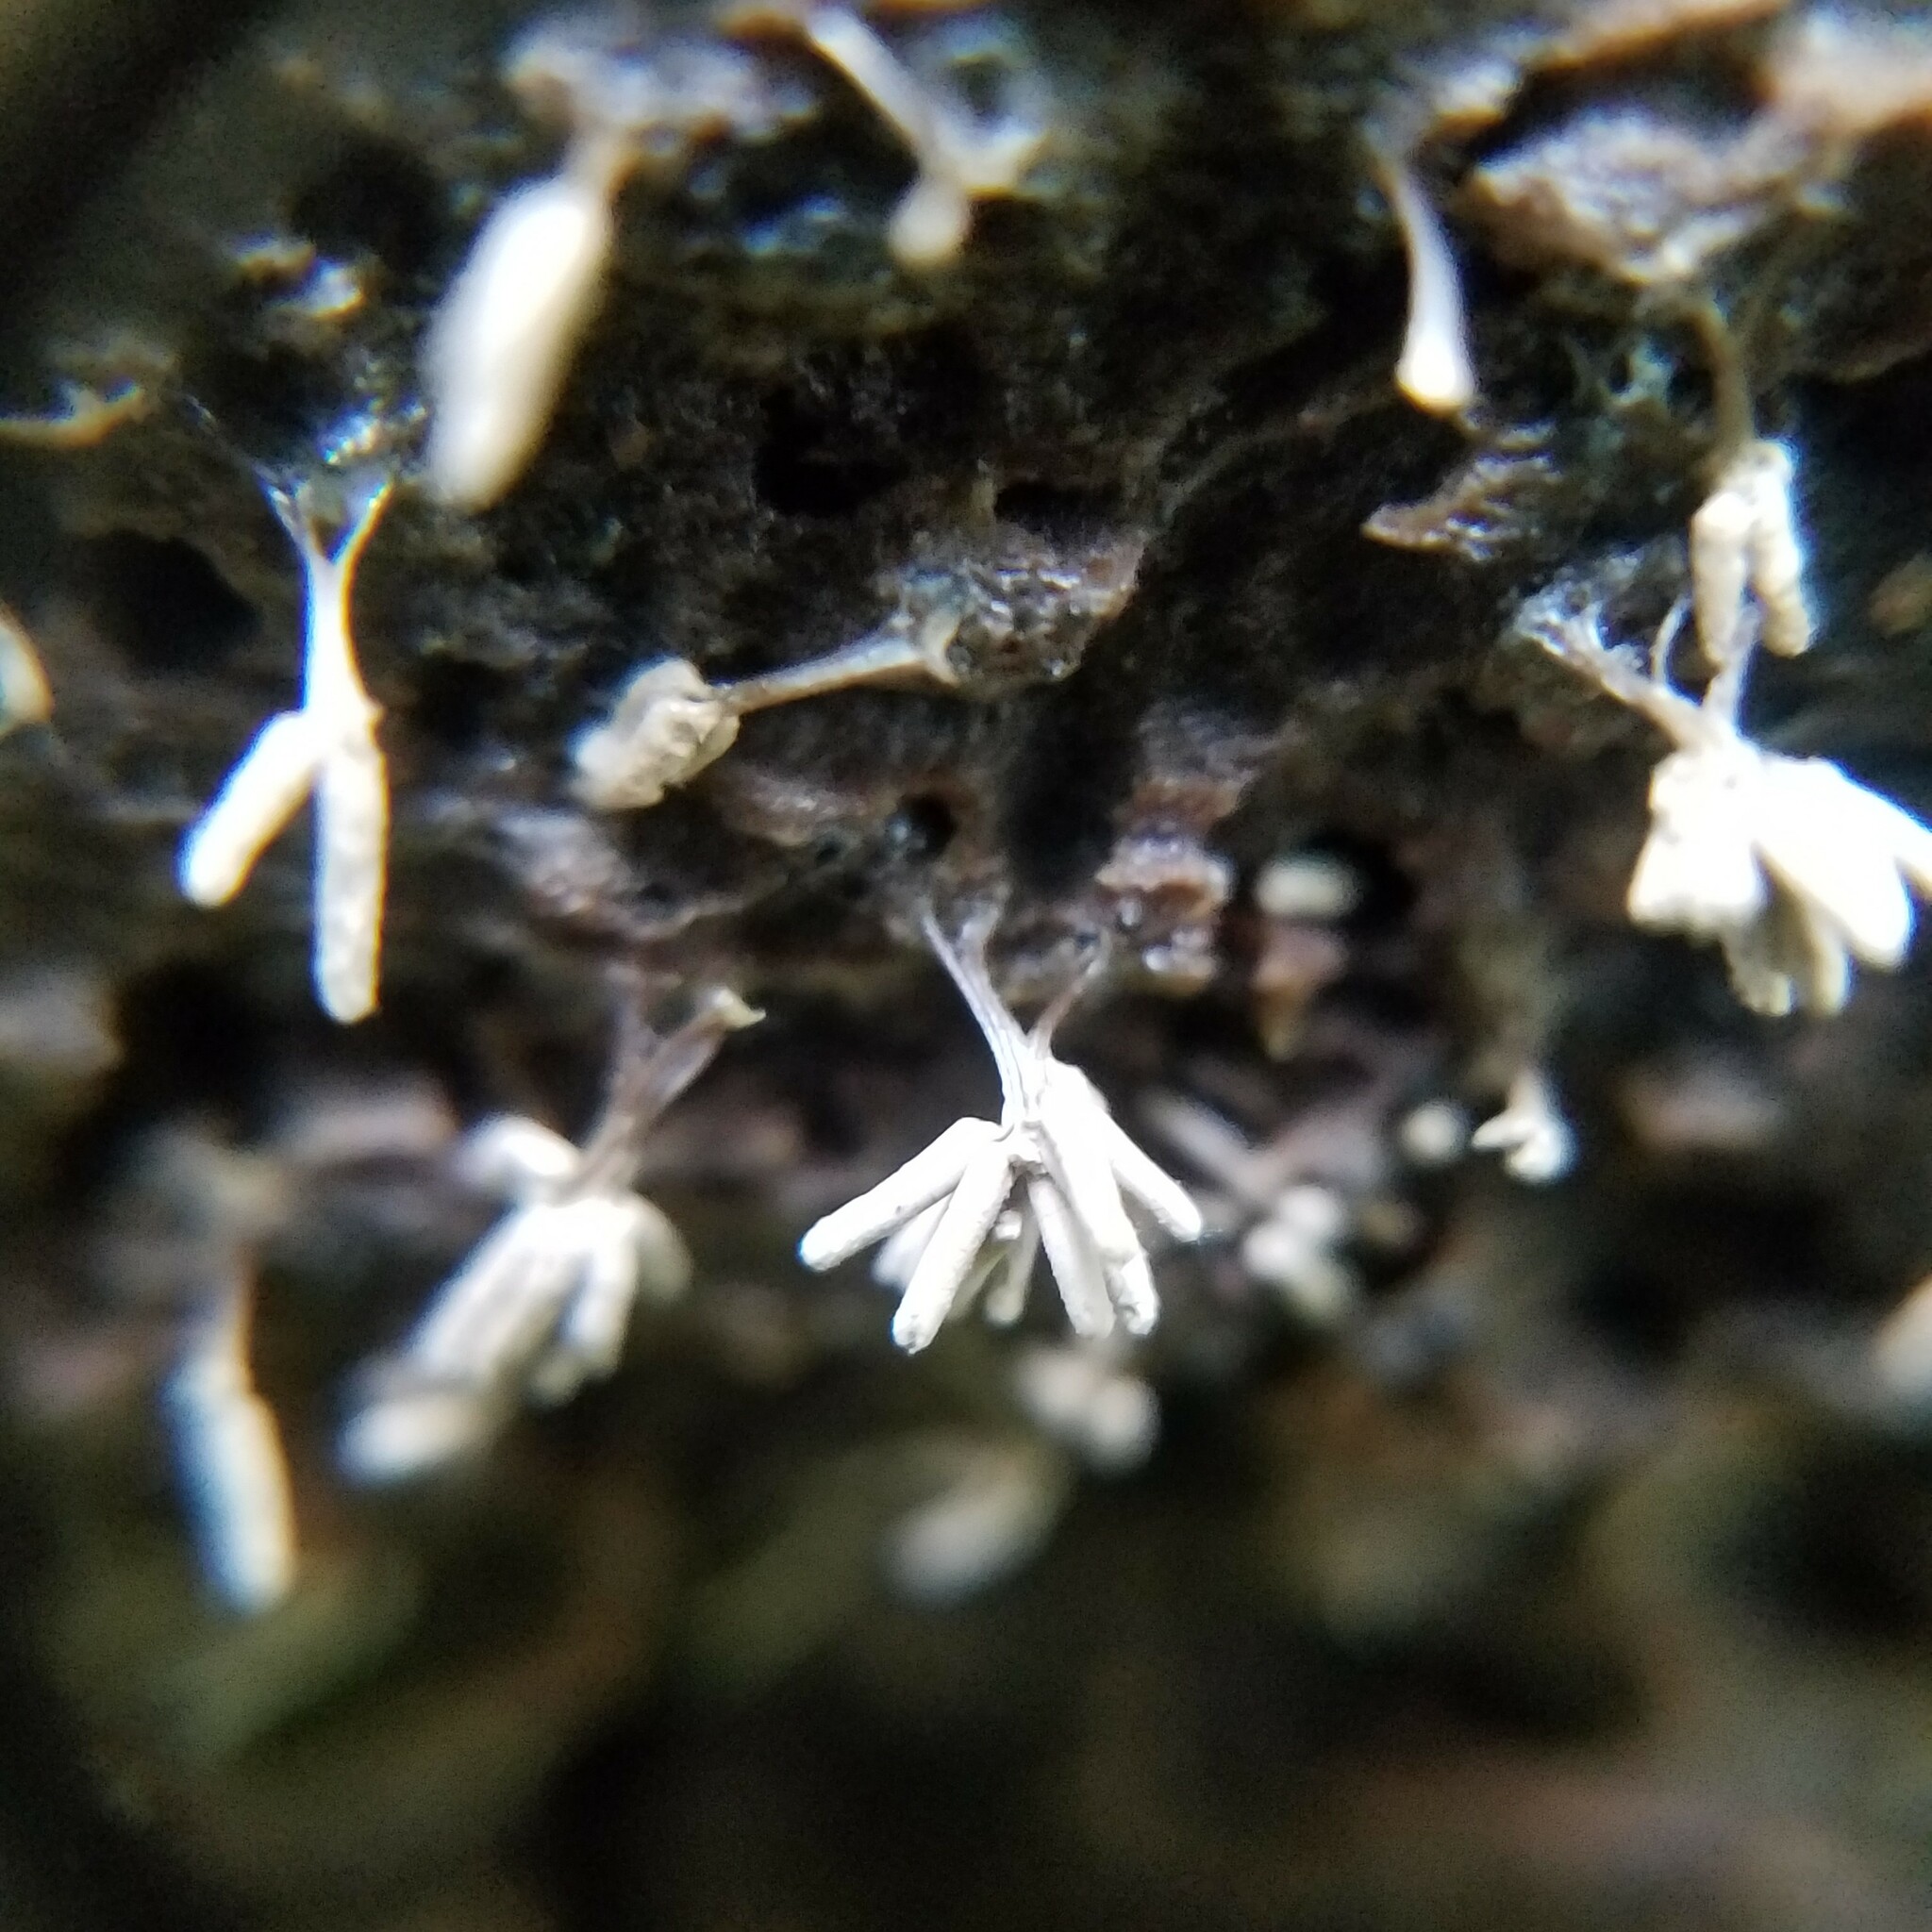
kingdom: Protozoa
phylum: Mycetozoa
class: Myxomycetes
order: Trichiales
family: Arcyriaceae
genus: Arcyria
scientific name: Arcyria cinerea
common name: White carnival candy slime mold
